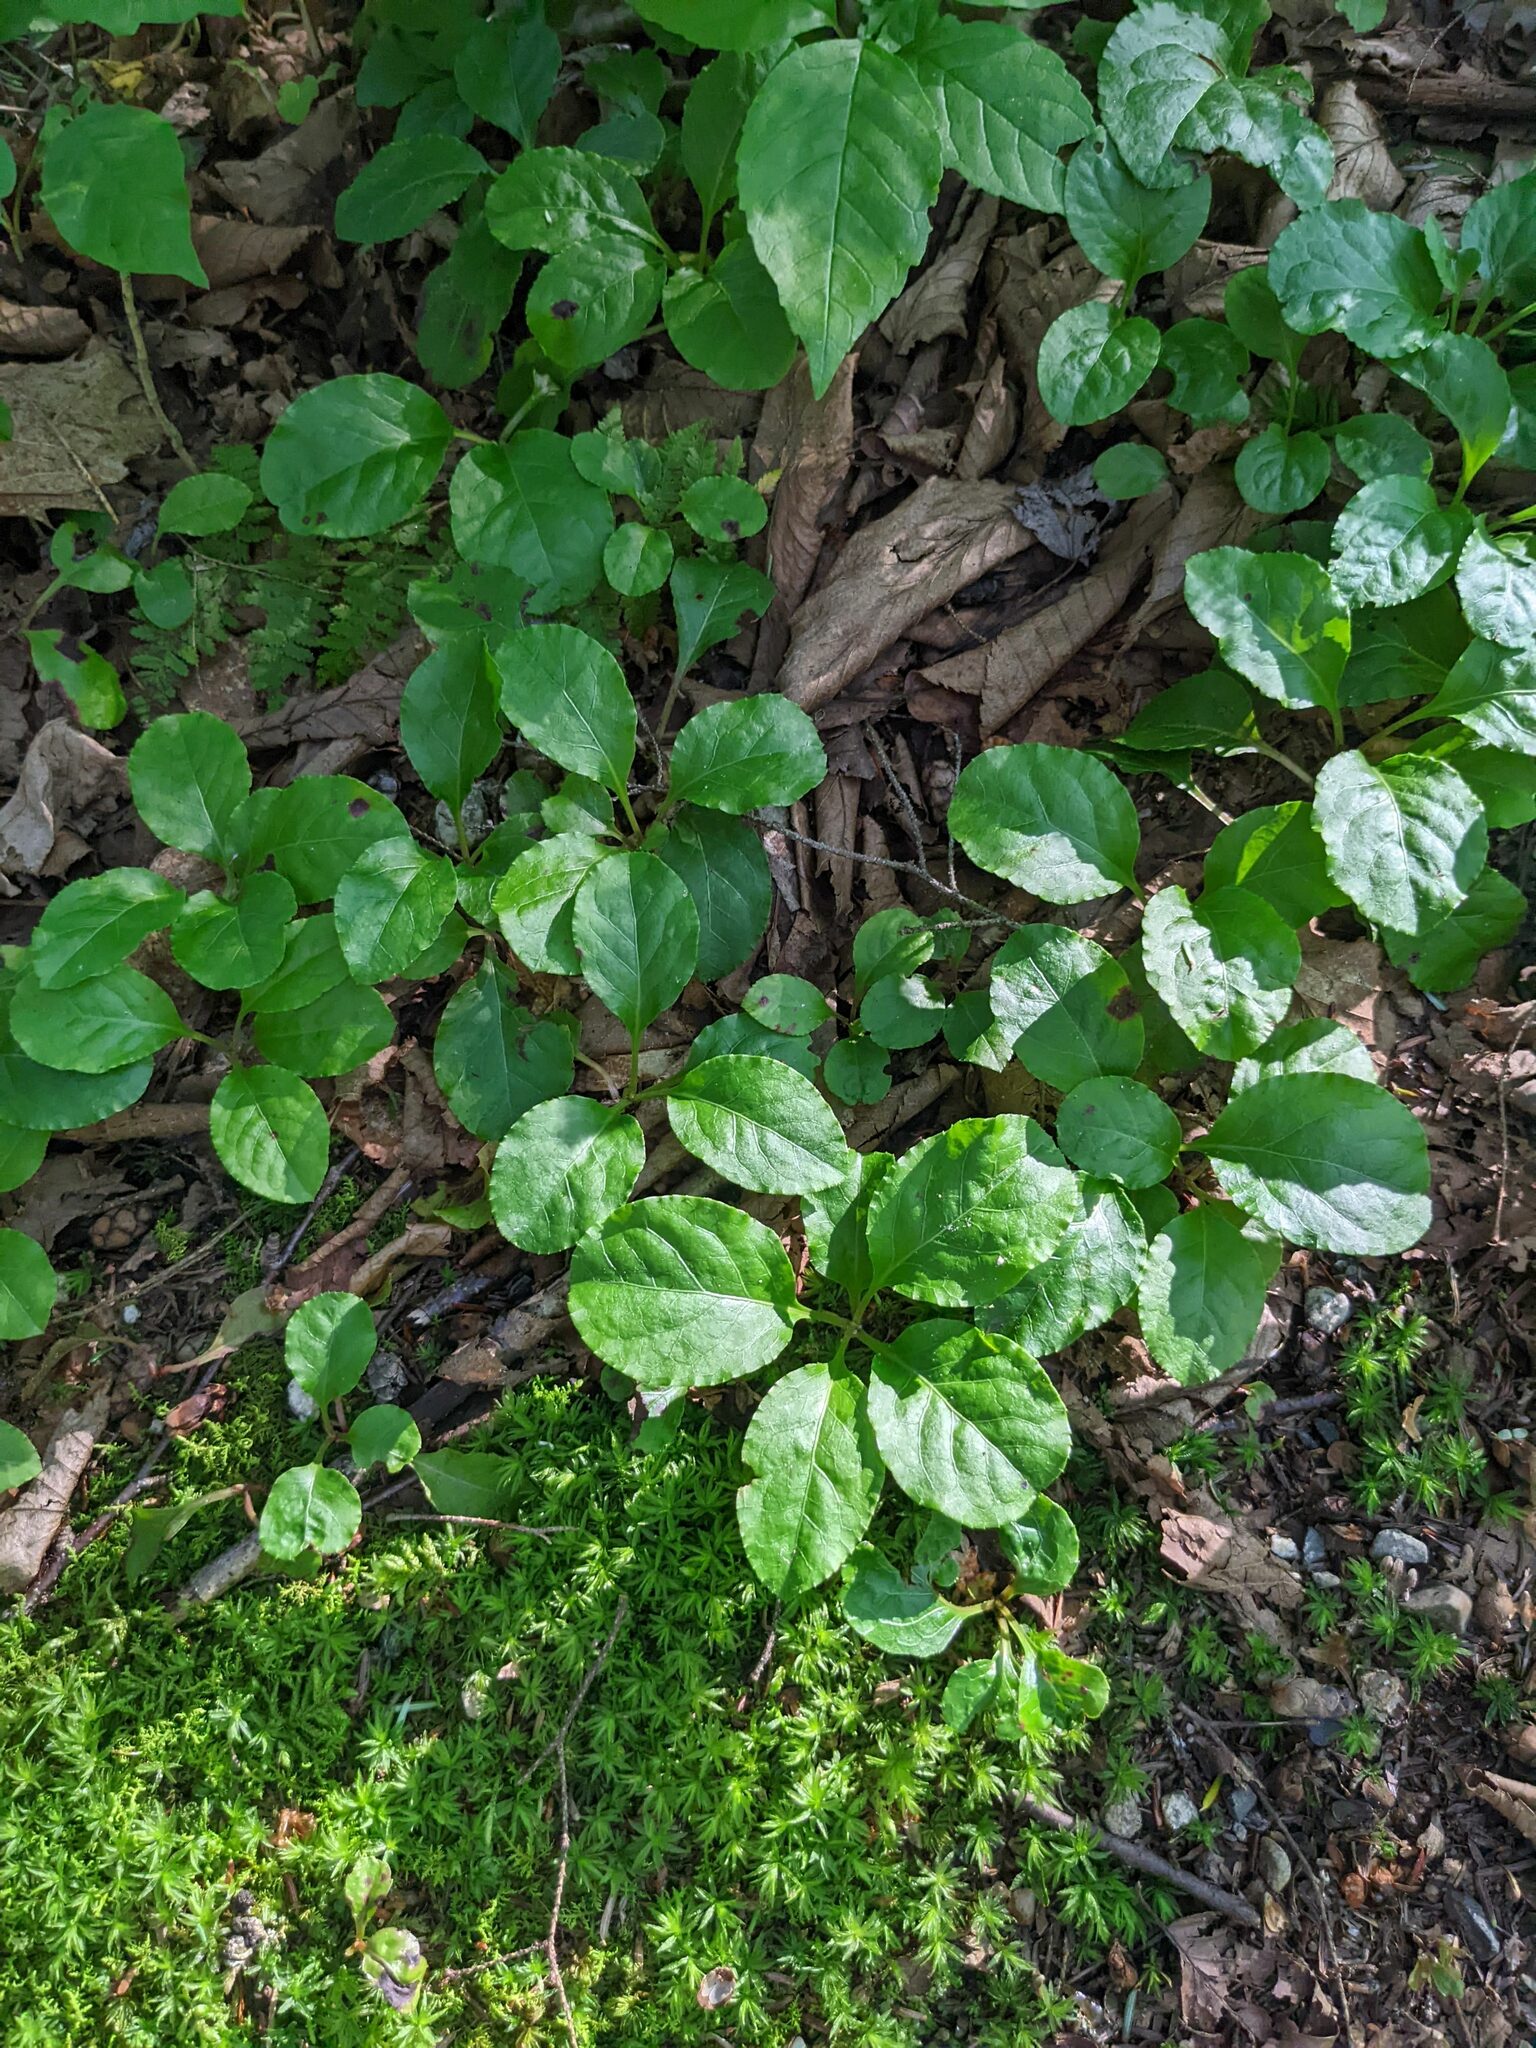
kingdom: Plantae
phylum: Tracheophyta
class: Magnoliopsida
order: Ericales
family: Ericaceae
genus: Pyrola
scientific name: Pyrola elliptica
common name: Shinleaf
